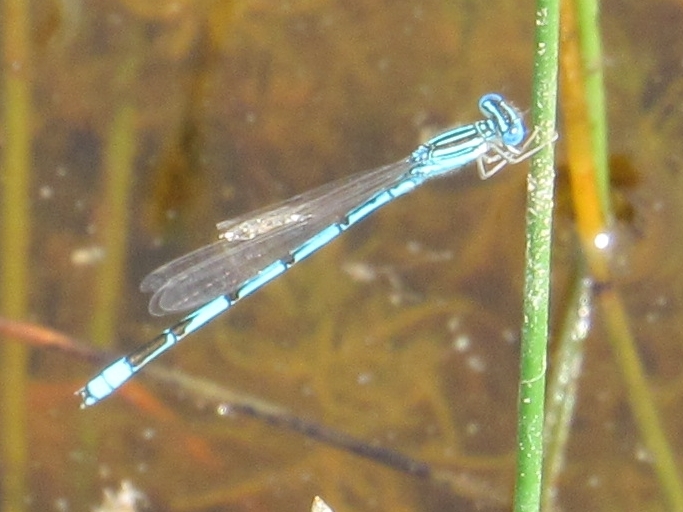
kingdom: Animalia
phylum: Arthropoda
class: Insecta
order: Odonata
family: Coenagrionidae
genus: Enallagma
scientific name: Enallagma basidens
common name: Double-striped bluet
